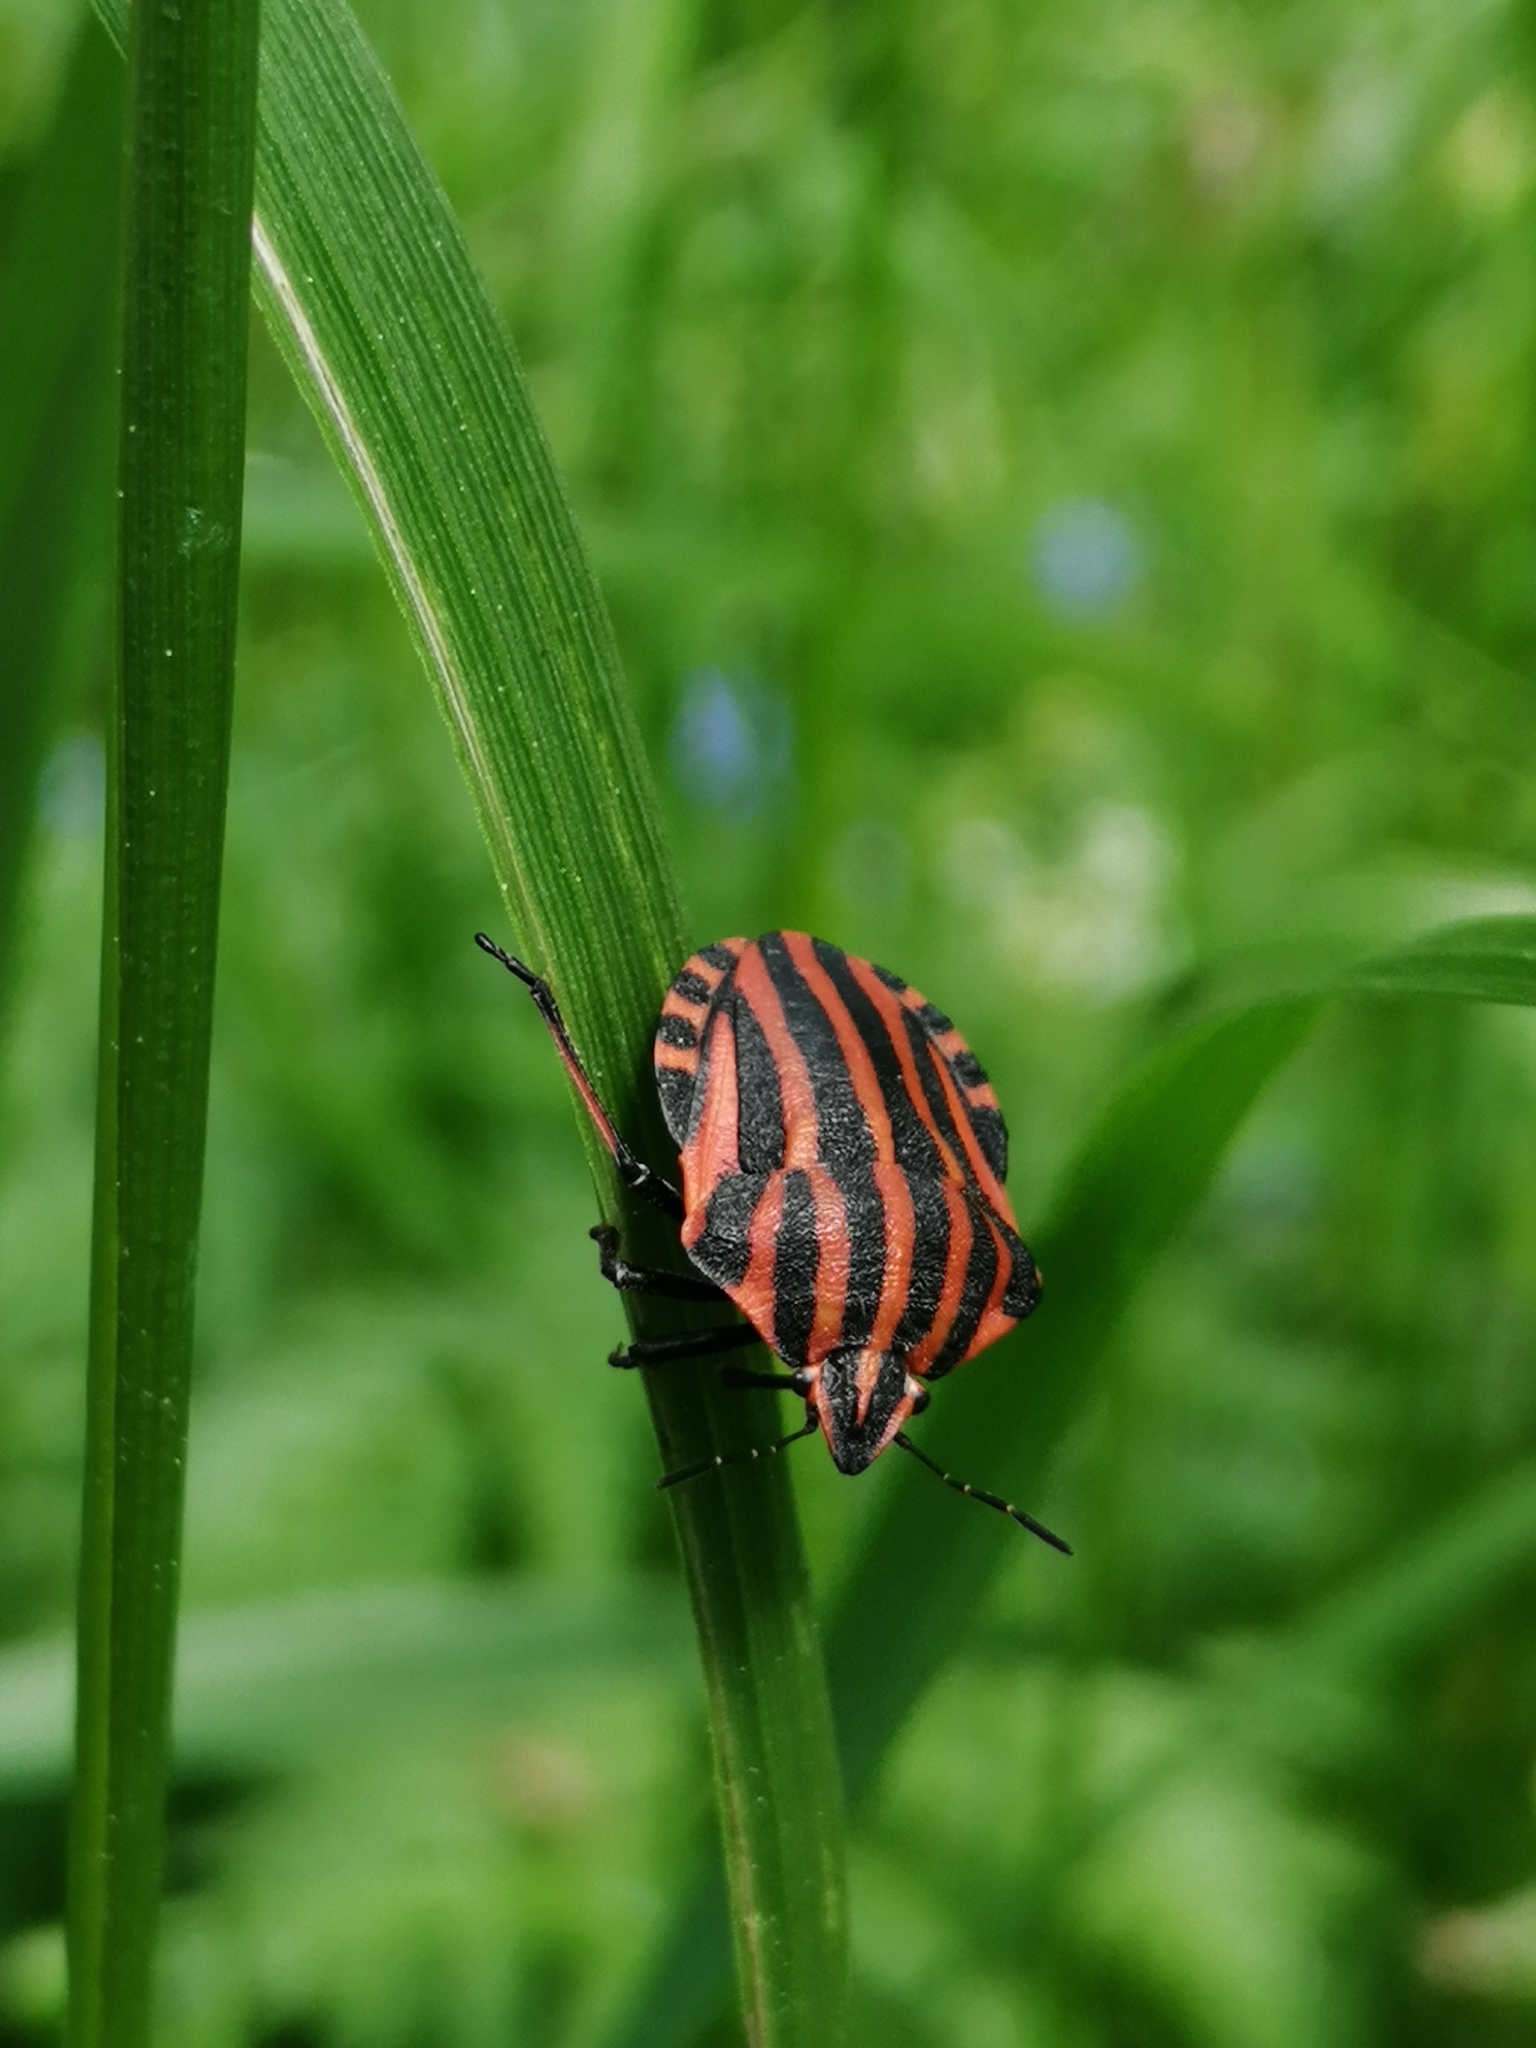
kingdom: Animalia
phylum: Arthropoda
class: Insecta
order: Hemiptera
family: Pentatomidae
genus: Graphosoma
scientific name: Graphosoma italicum
